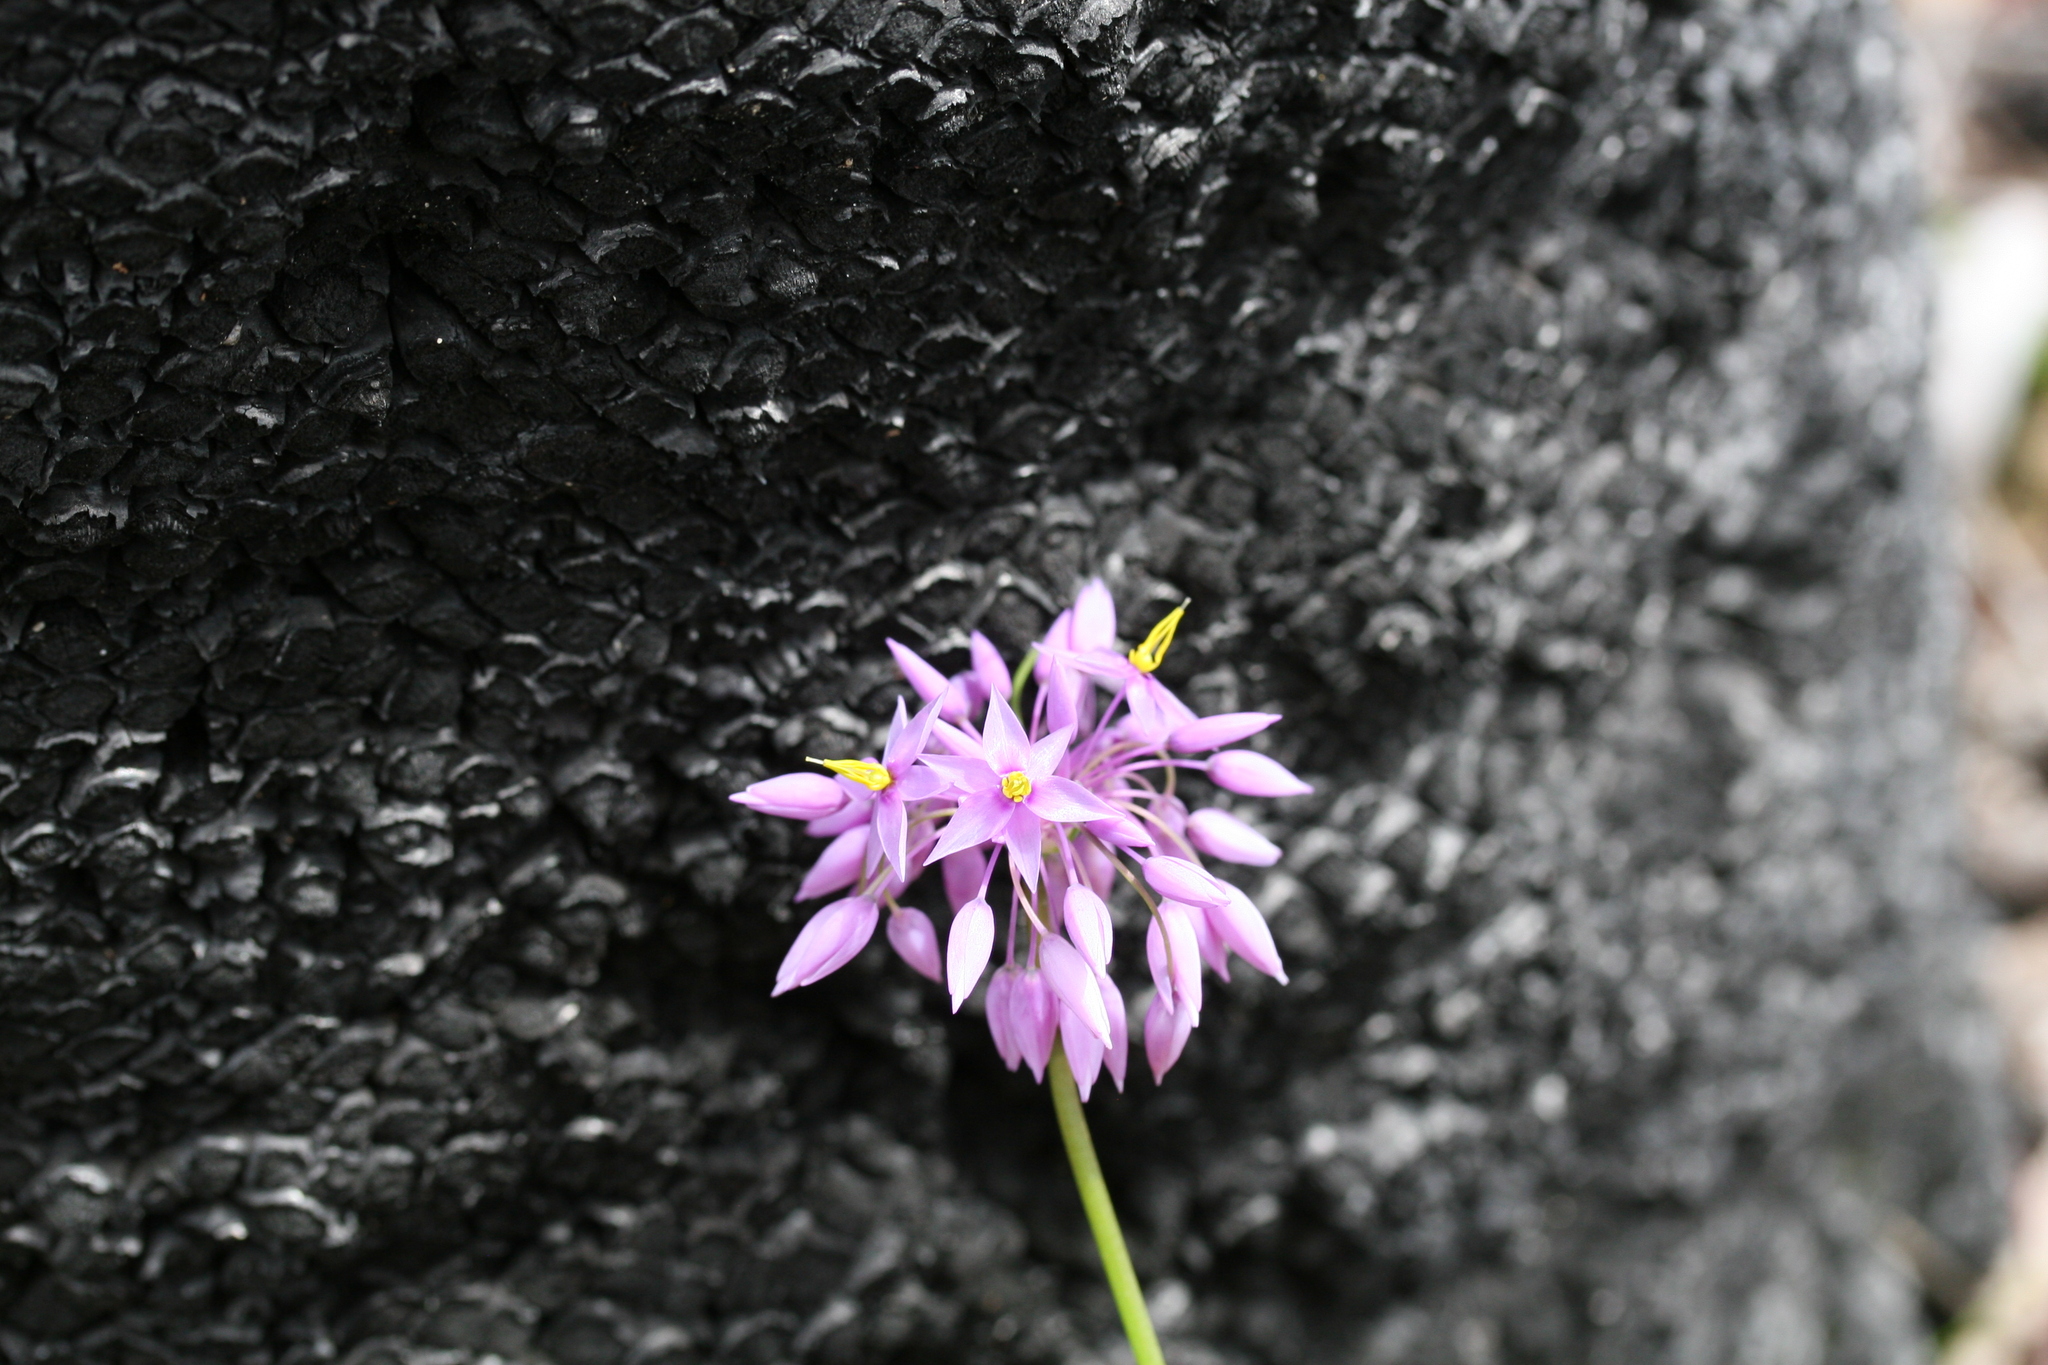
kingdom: Plantae
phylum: Tracheophyta
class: Liliopsida
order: Asparagales
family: Asparagaceae
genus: Sowerbaea
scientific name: Sowerbaea laxiflora
